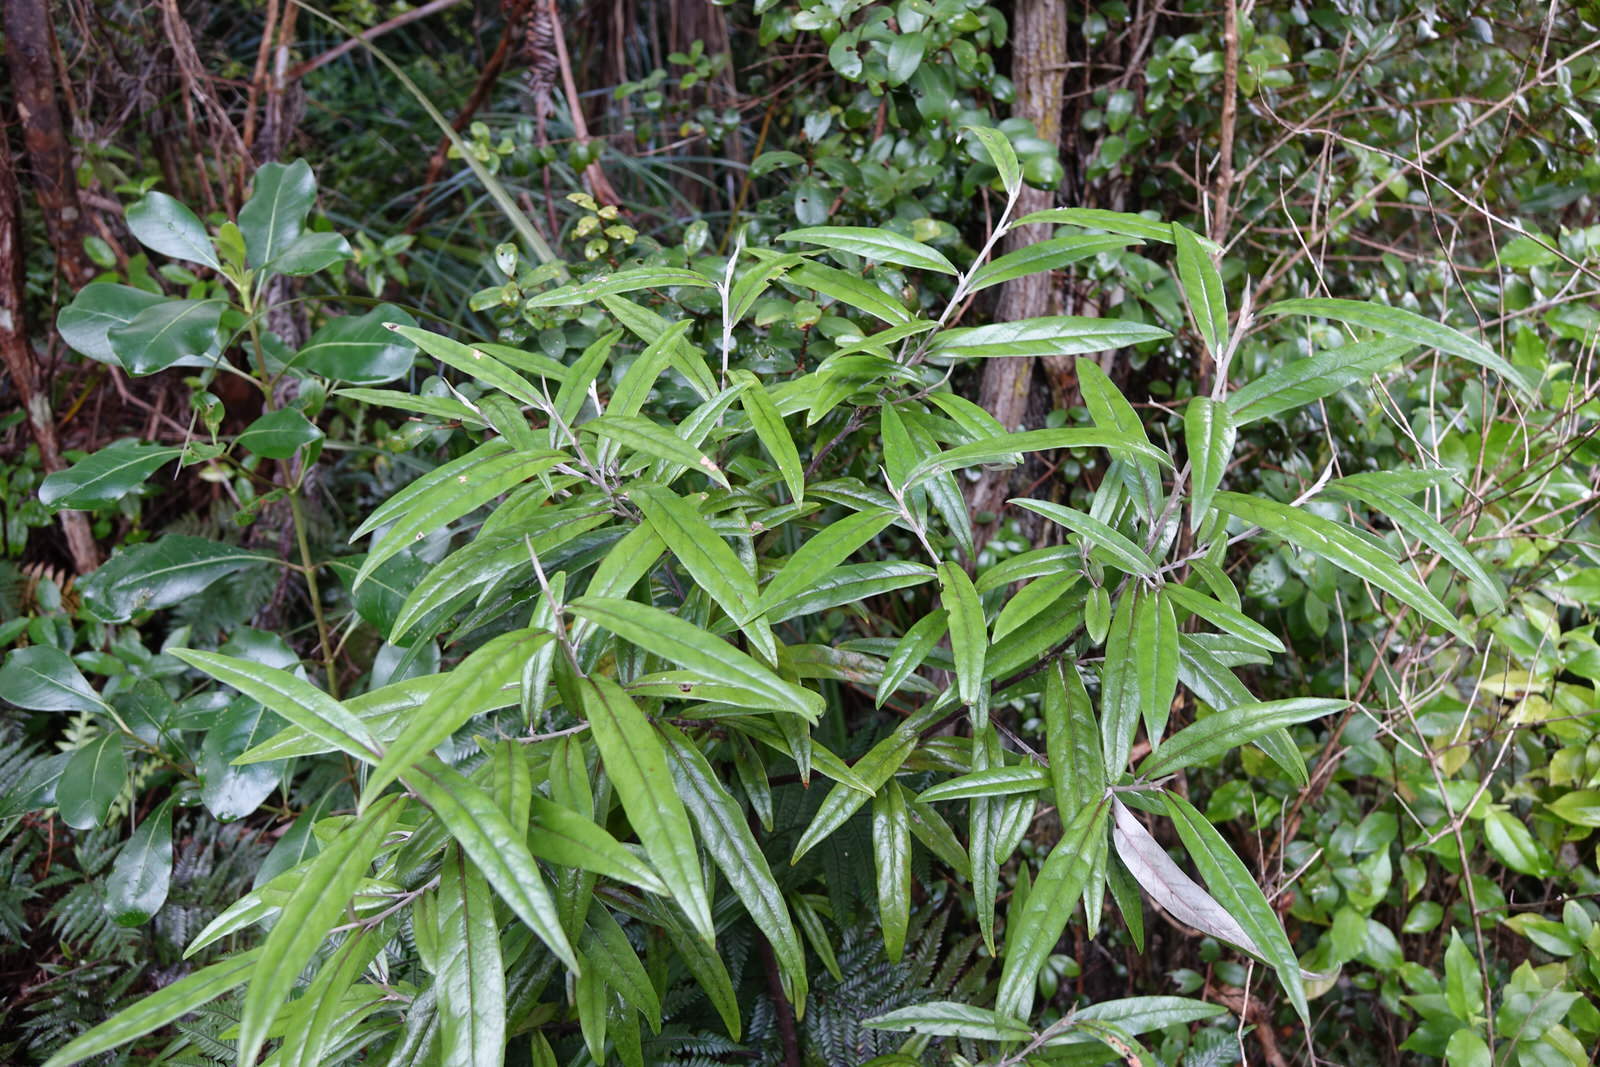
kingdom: Plantae
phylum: Tracheophyta
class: Magnoliopsida
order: Asterales
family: Argophyllaceae
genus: Corokia
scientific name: Corokia buddleioides
